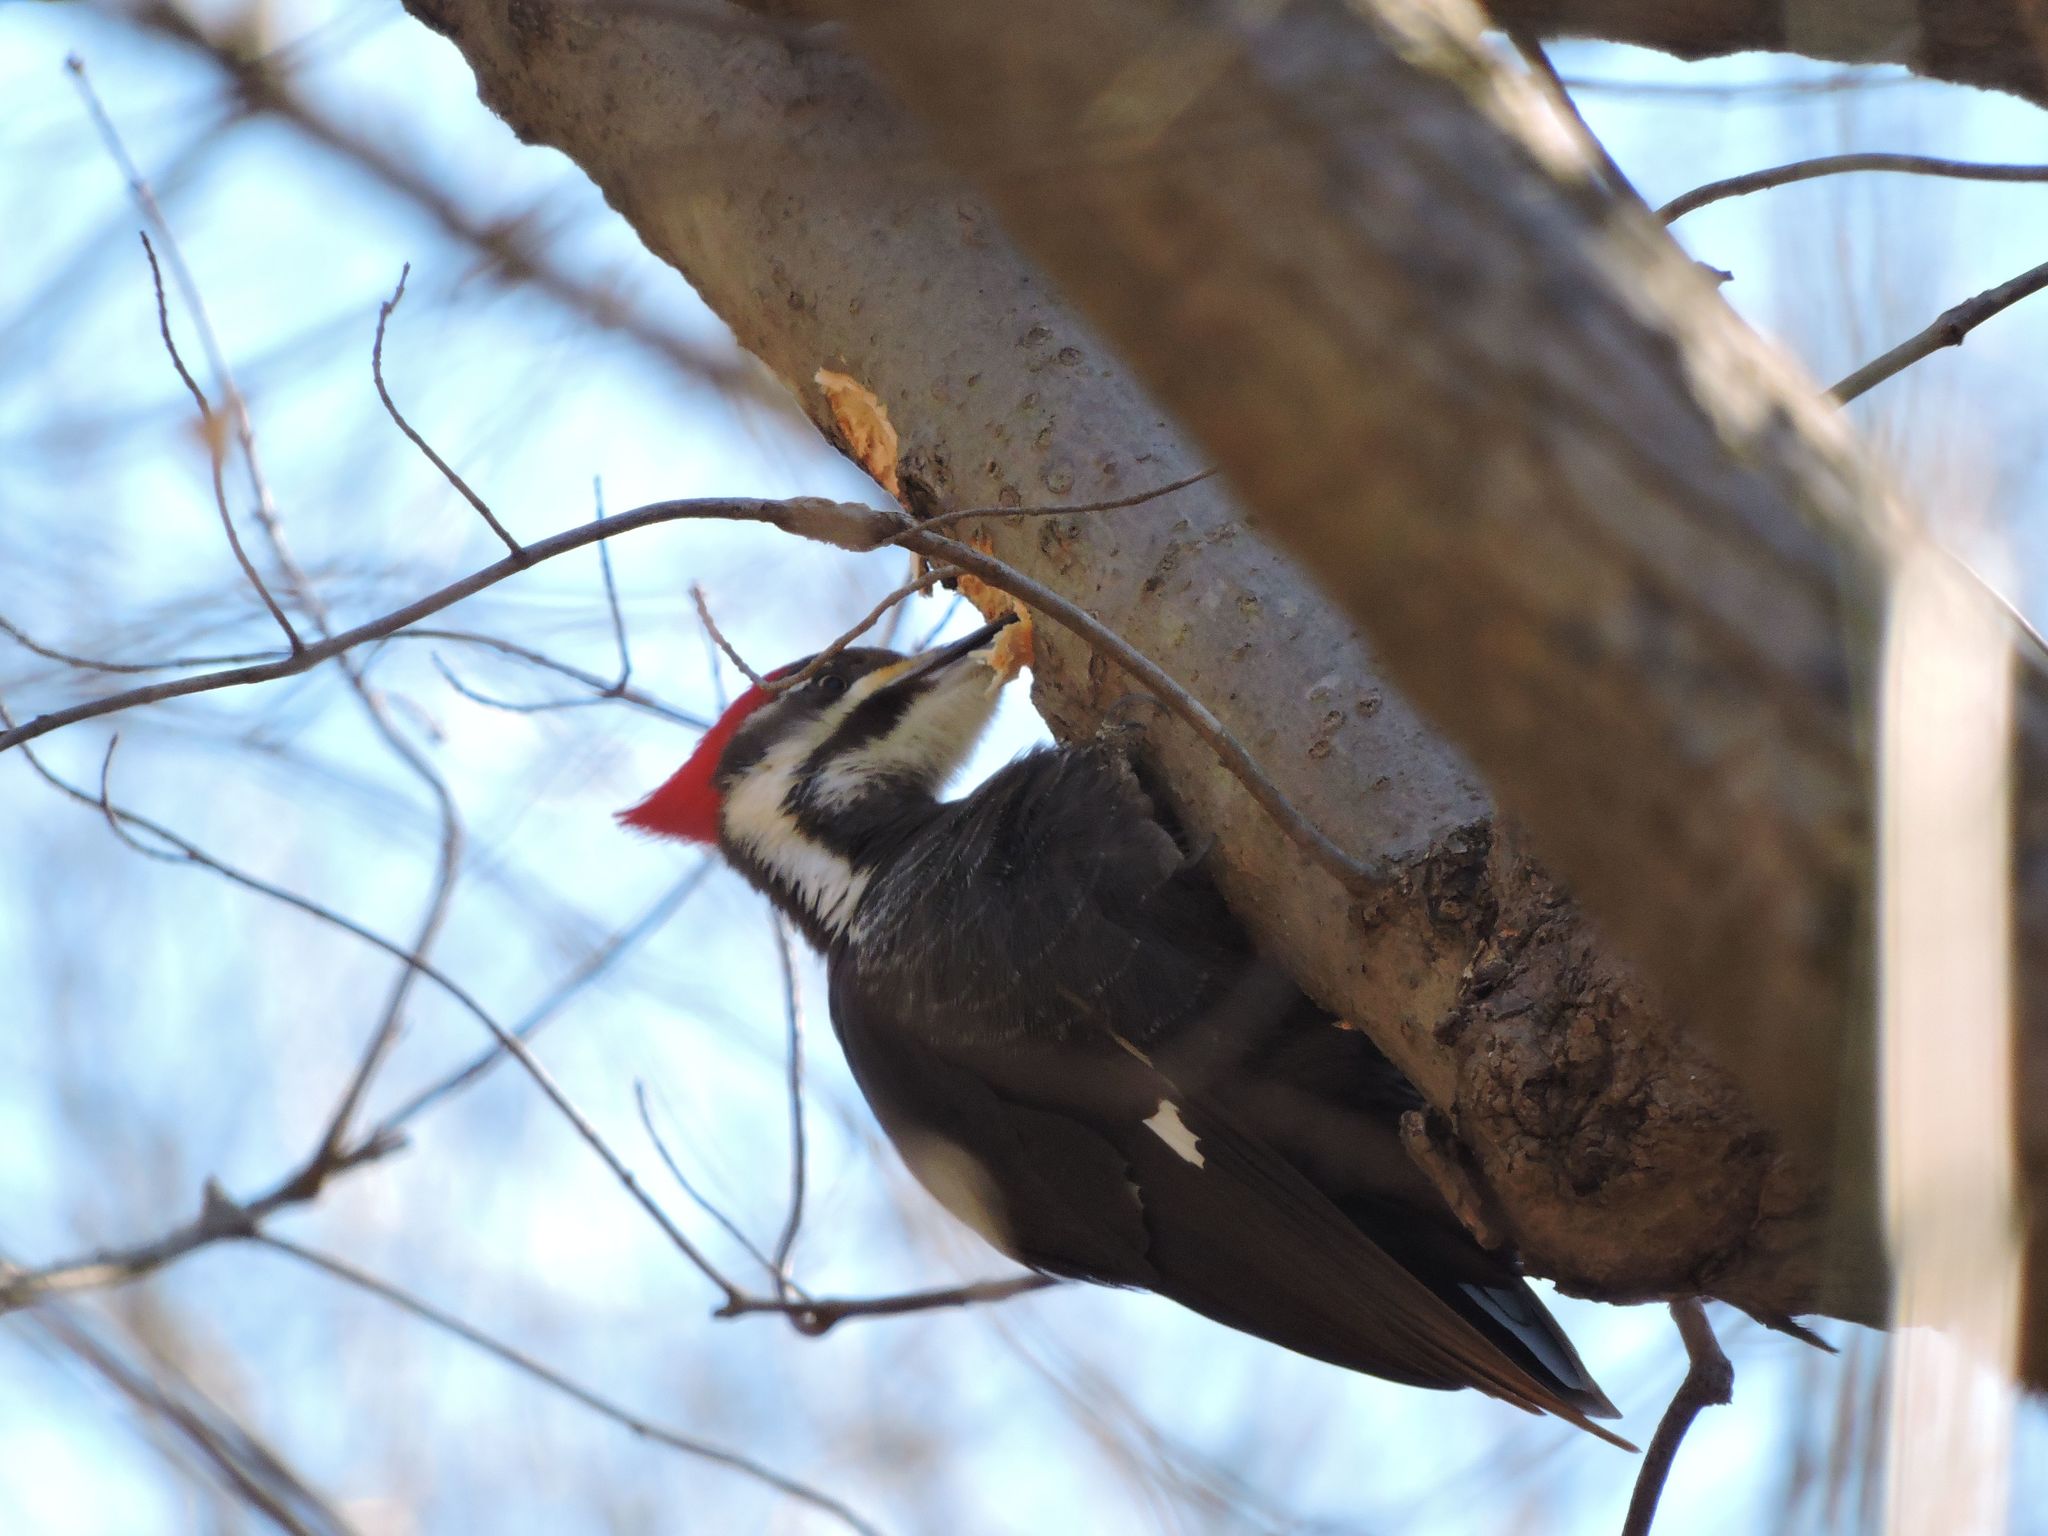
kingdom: Animalia
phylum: Chordata
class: Aves
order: Piciformes
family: Picidae
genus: Dryocopus
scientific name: Dryocopus pileatus
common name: Pileated woodpecker
